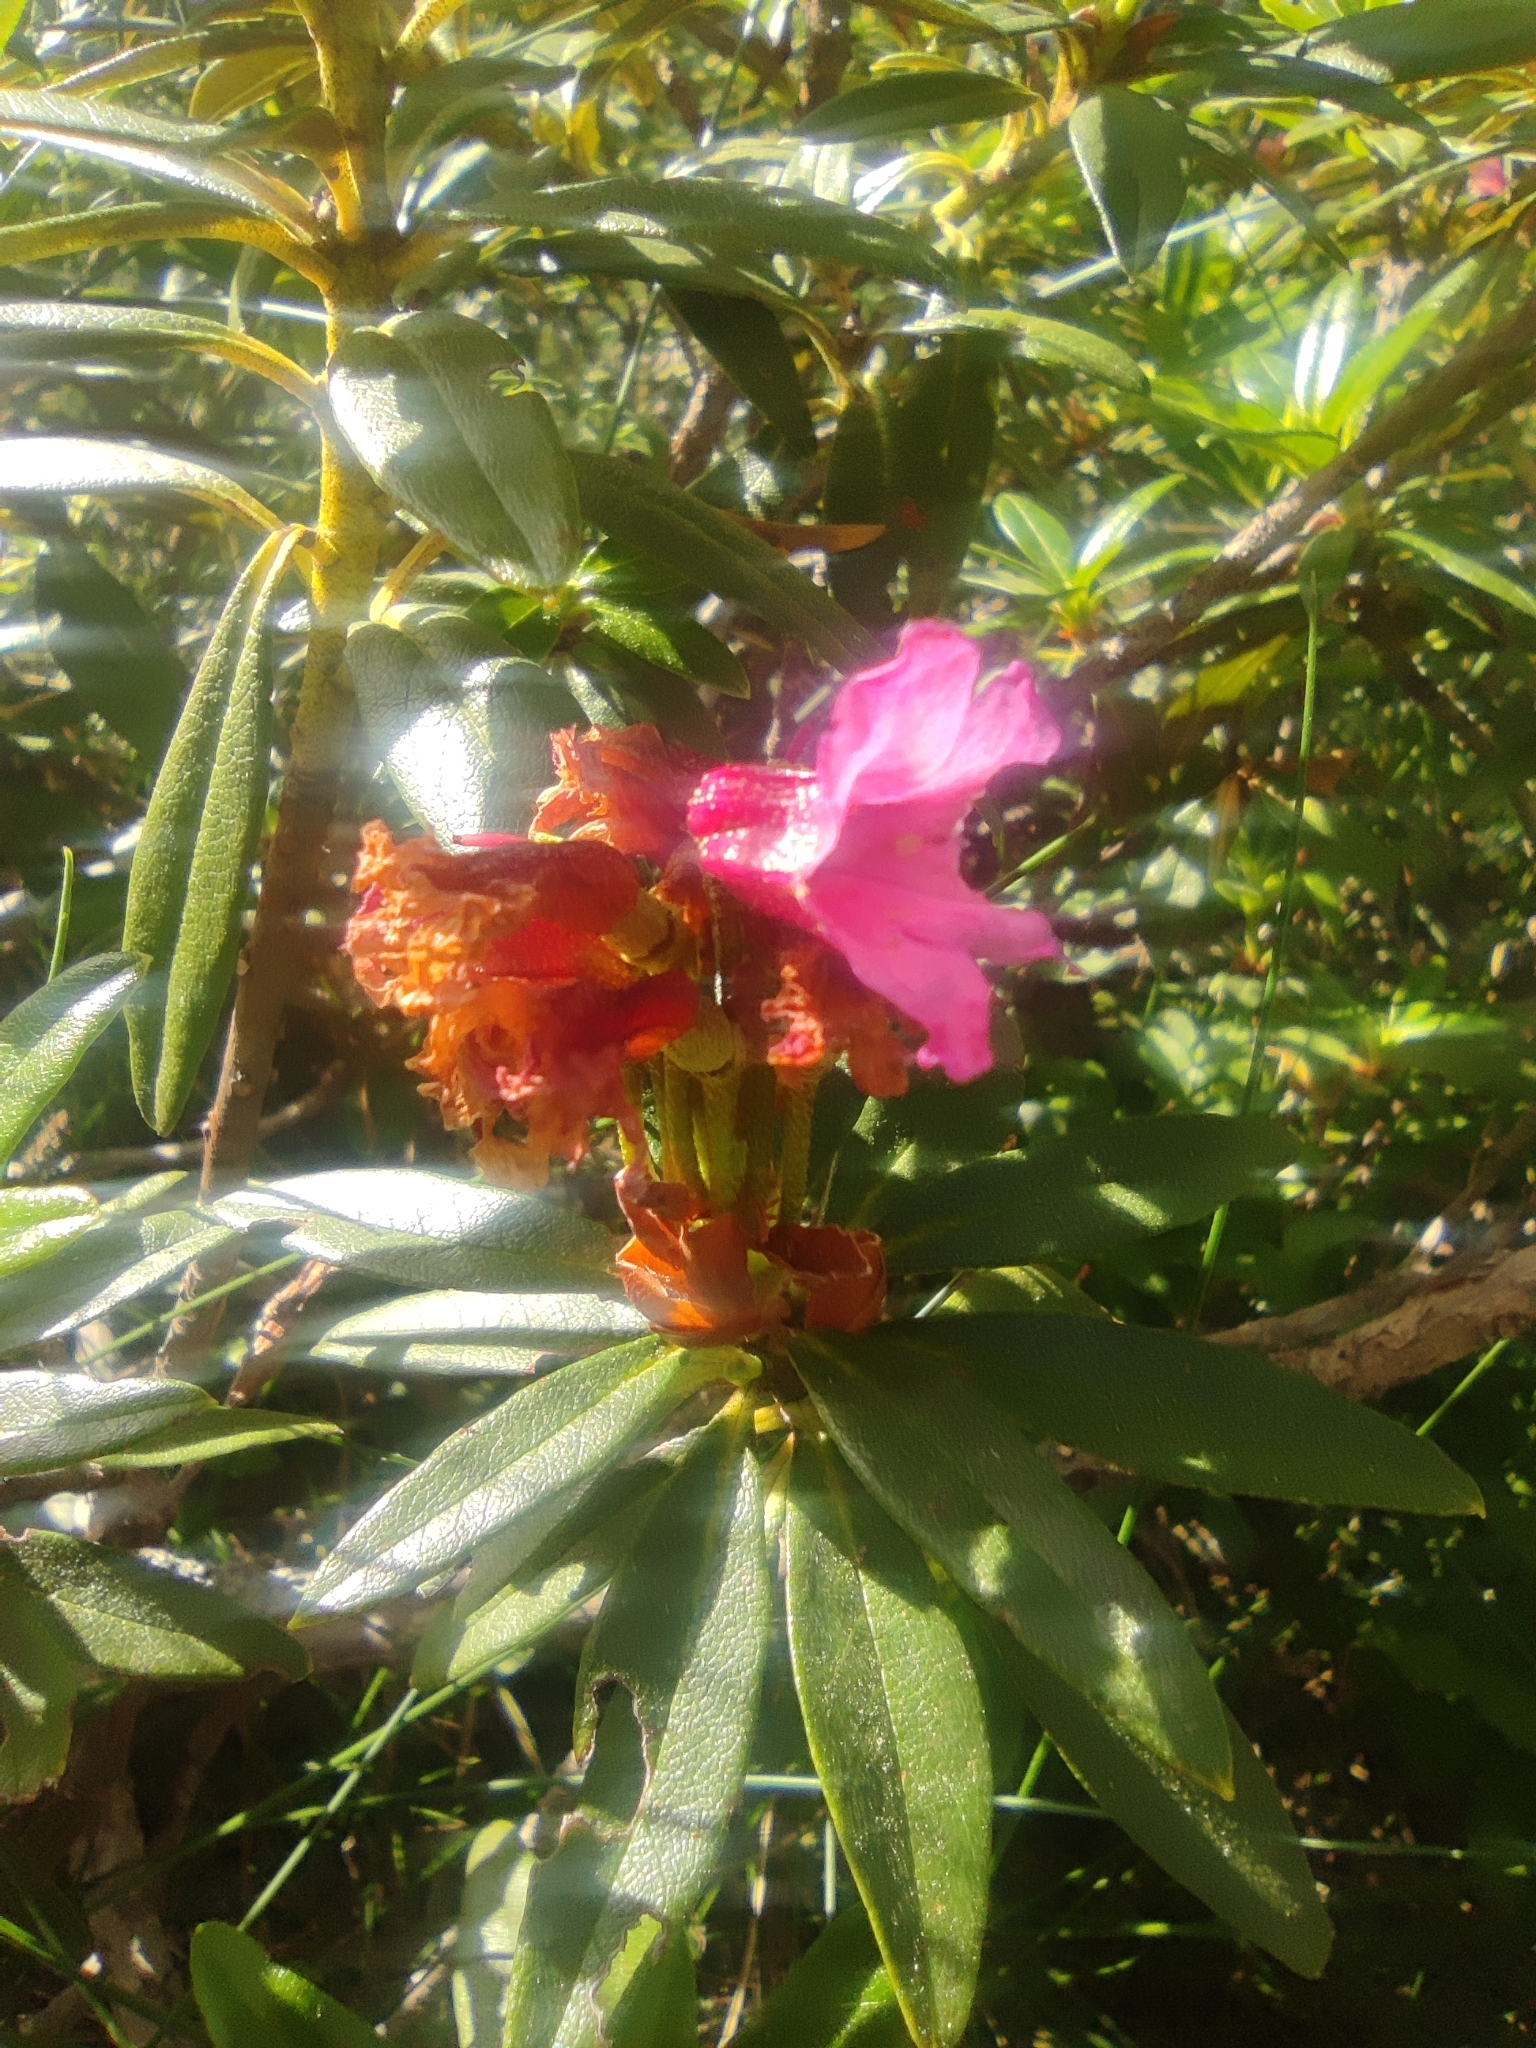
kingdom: Plantae
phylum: Tracheophyta
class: Magnoliopsida
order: Ericales
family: Ericaceae
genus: Rhododendron
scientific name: Rhododendron ferrugineum
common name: Alpenrose
